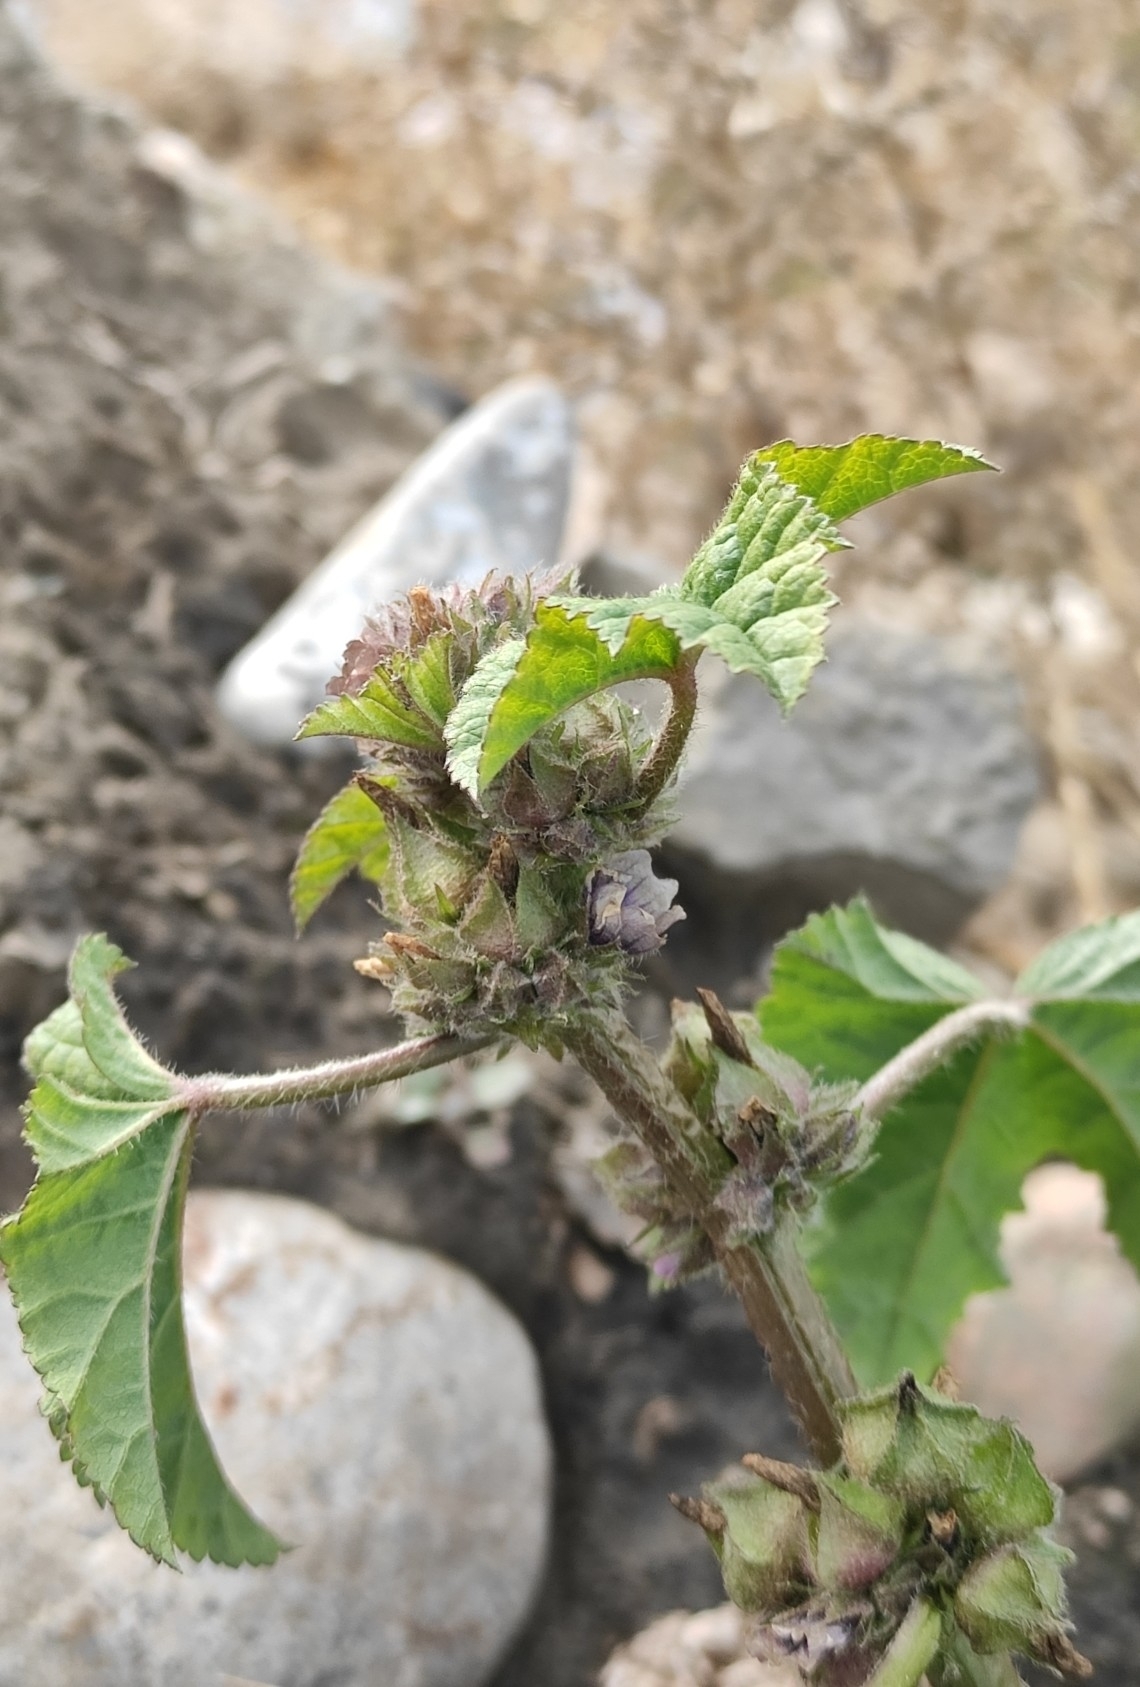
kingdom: Plantae
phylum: Tracheophyta
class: Magnoliopsida
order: Malvales
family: Malvaceae
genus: Malva
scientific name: Malva verticillata
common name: Chinese mallow
